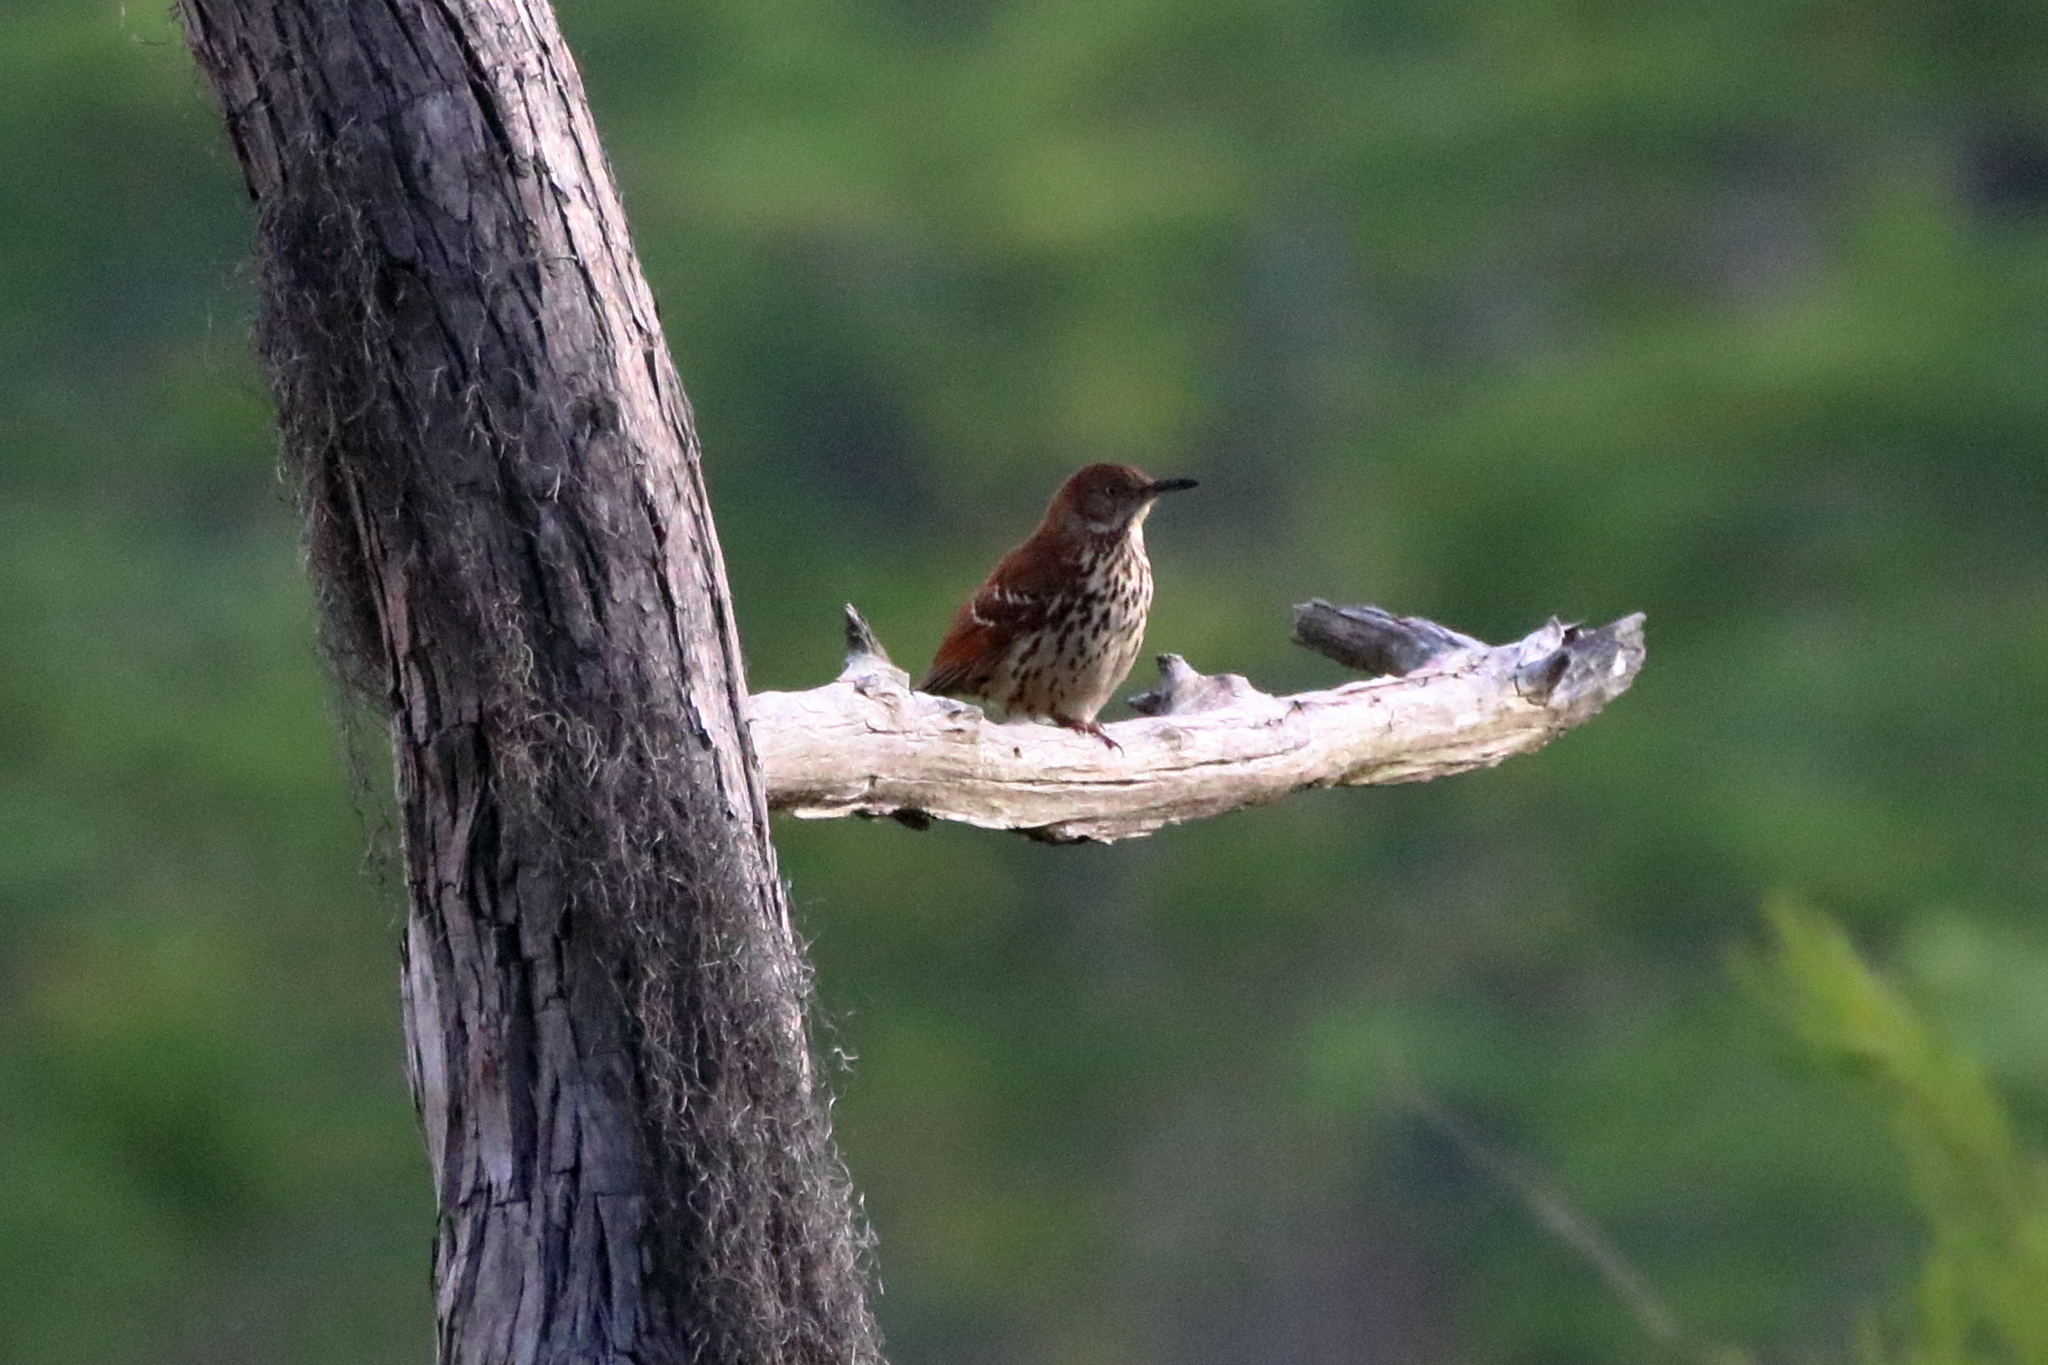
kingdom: Animalia
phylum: Chordata
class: Aves
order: Passeriformes
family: Mimidae
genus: Toxostoma
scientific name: Toxostoma rufum
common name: Brown thrasher
